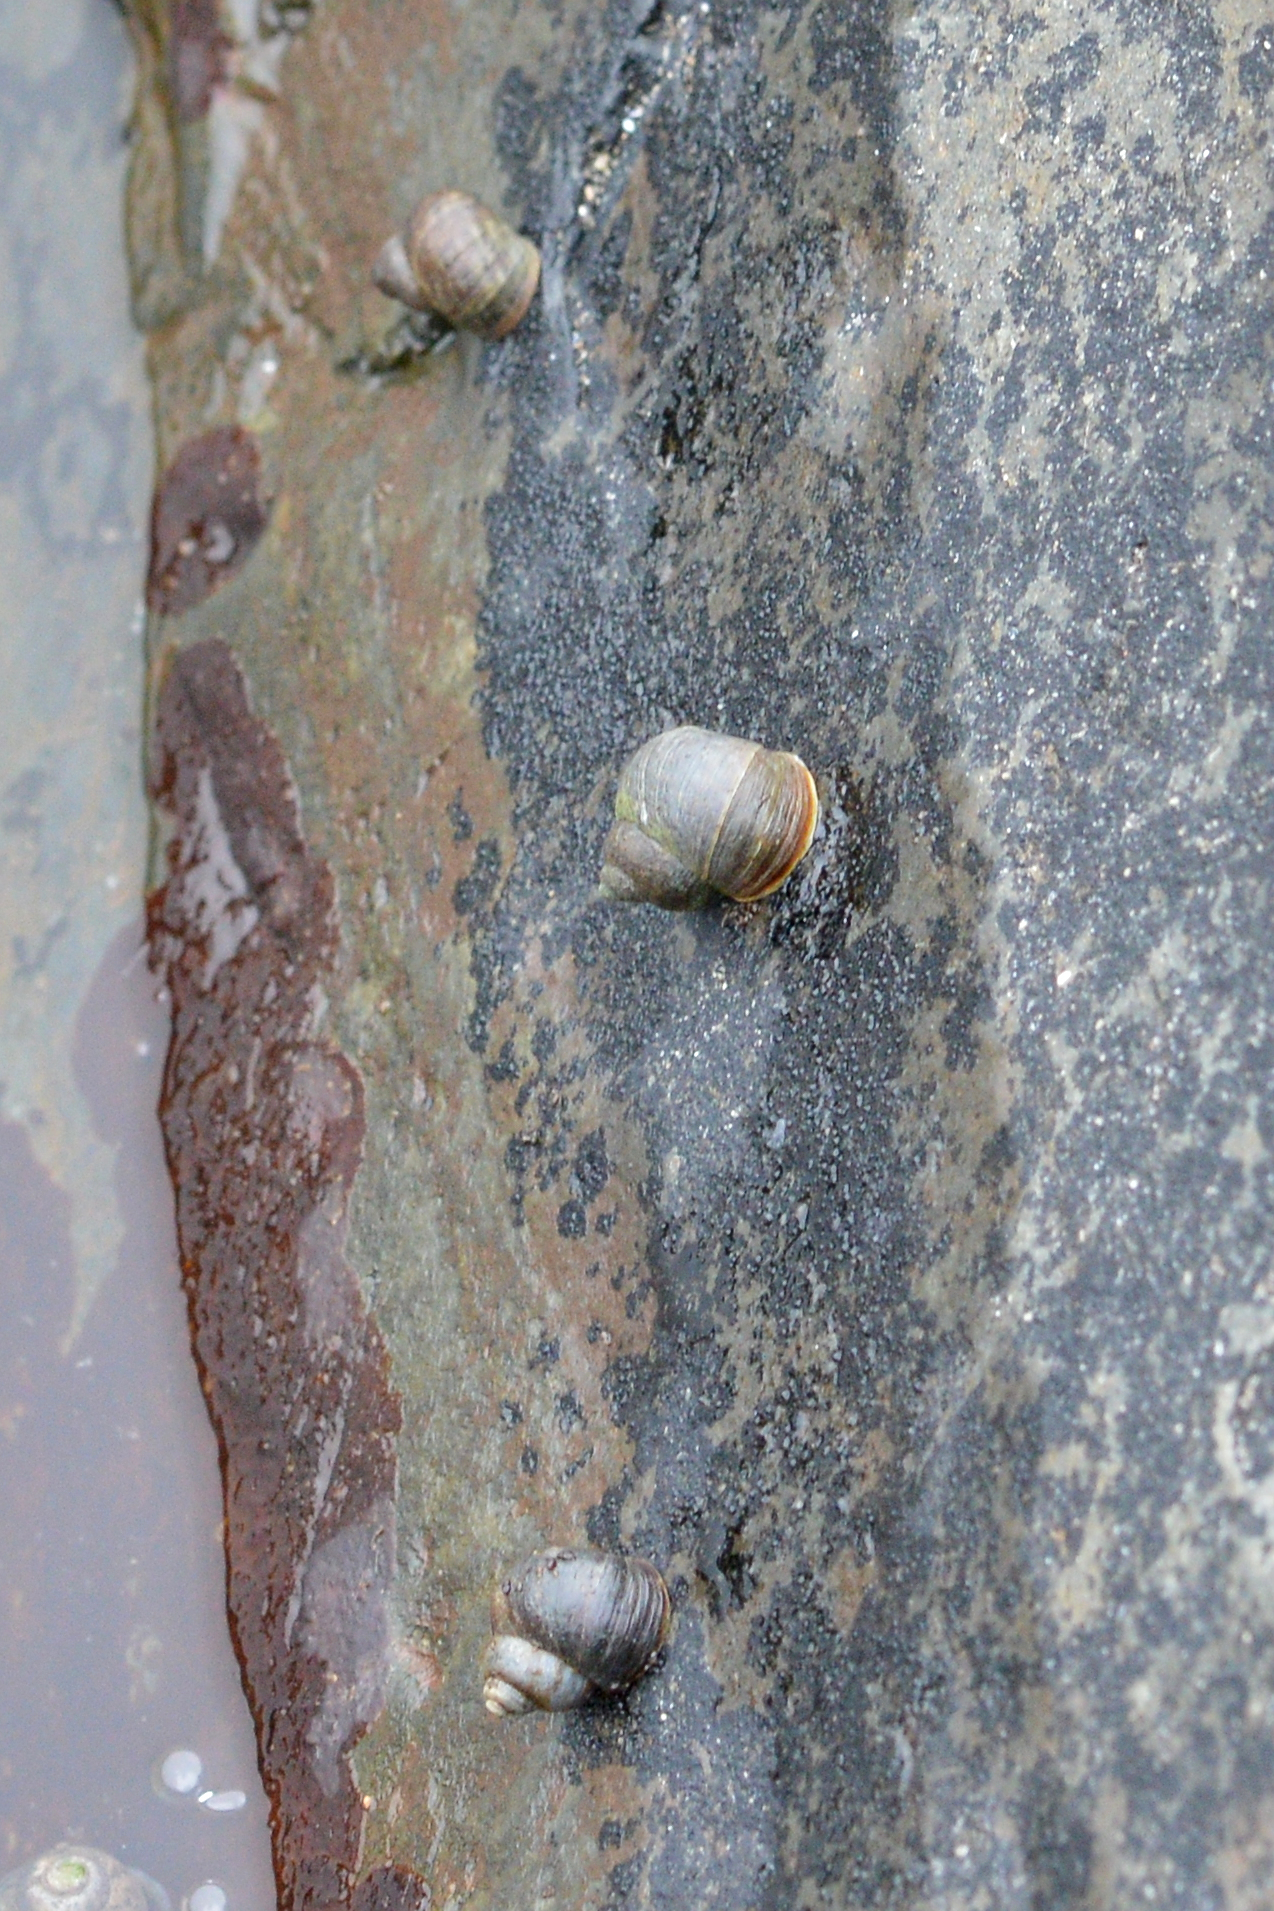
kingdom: Animalia
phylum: Mollusca
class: Gastropoda
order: Littorinimorpha
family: Littorinidae
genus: Littorina
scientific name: Littorina saxatilis
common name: Black-lined periwinkle
